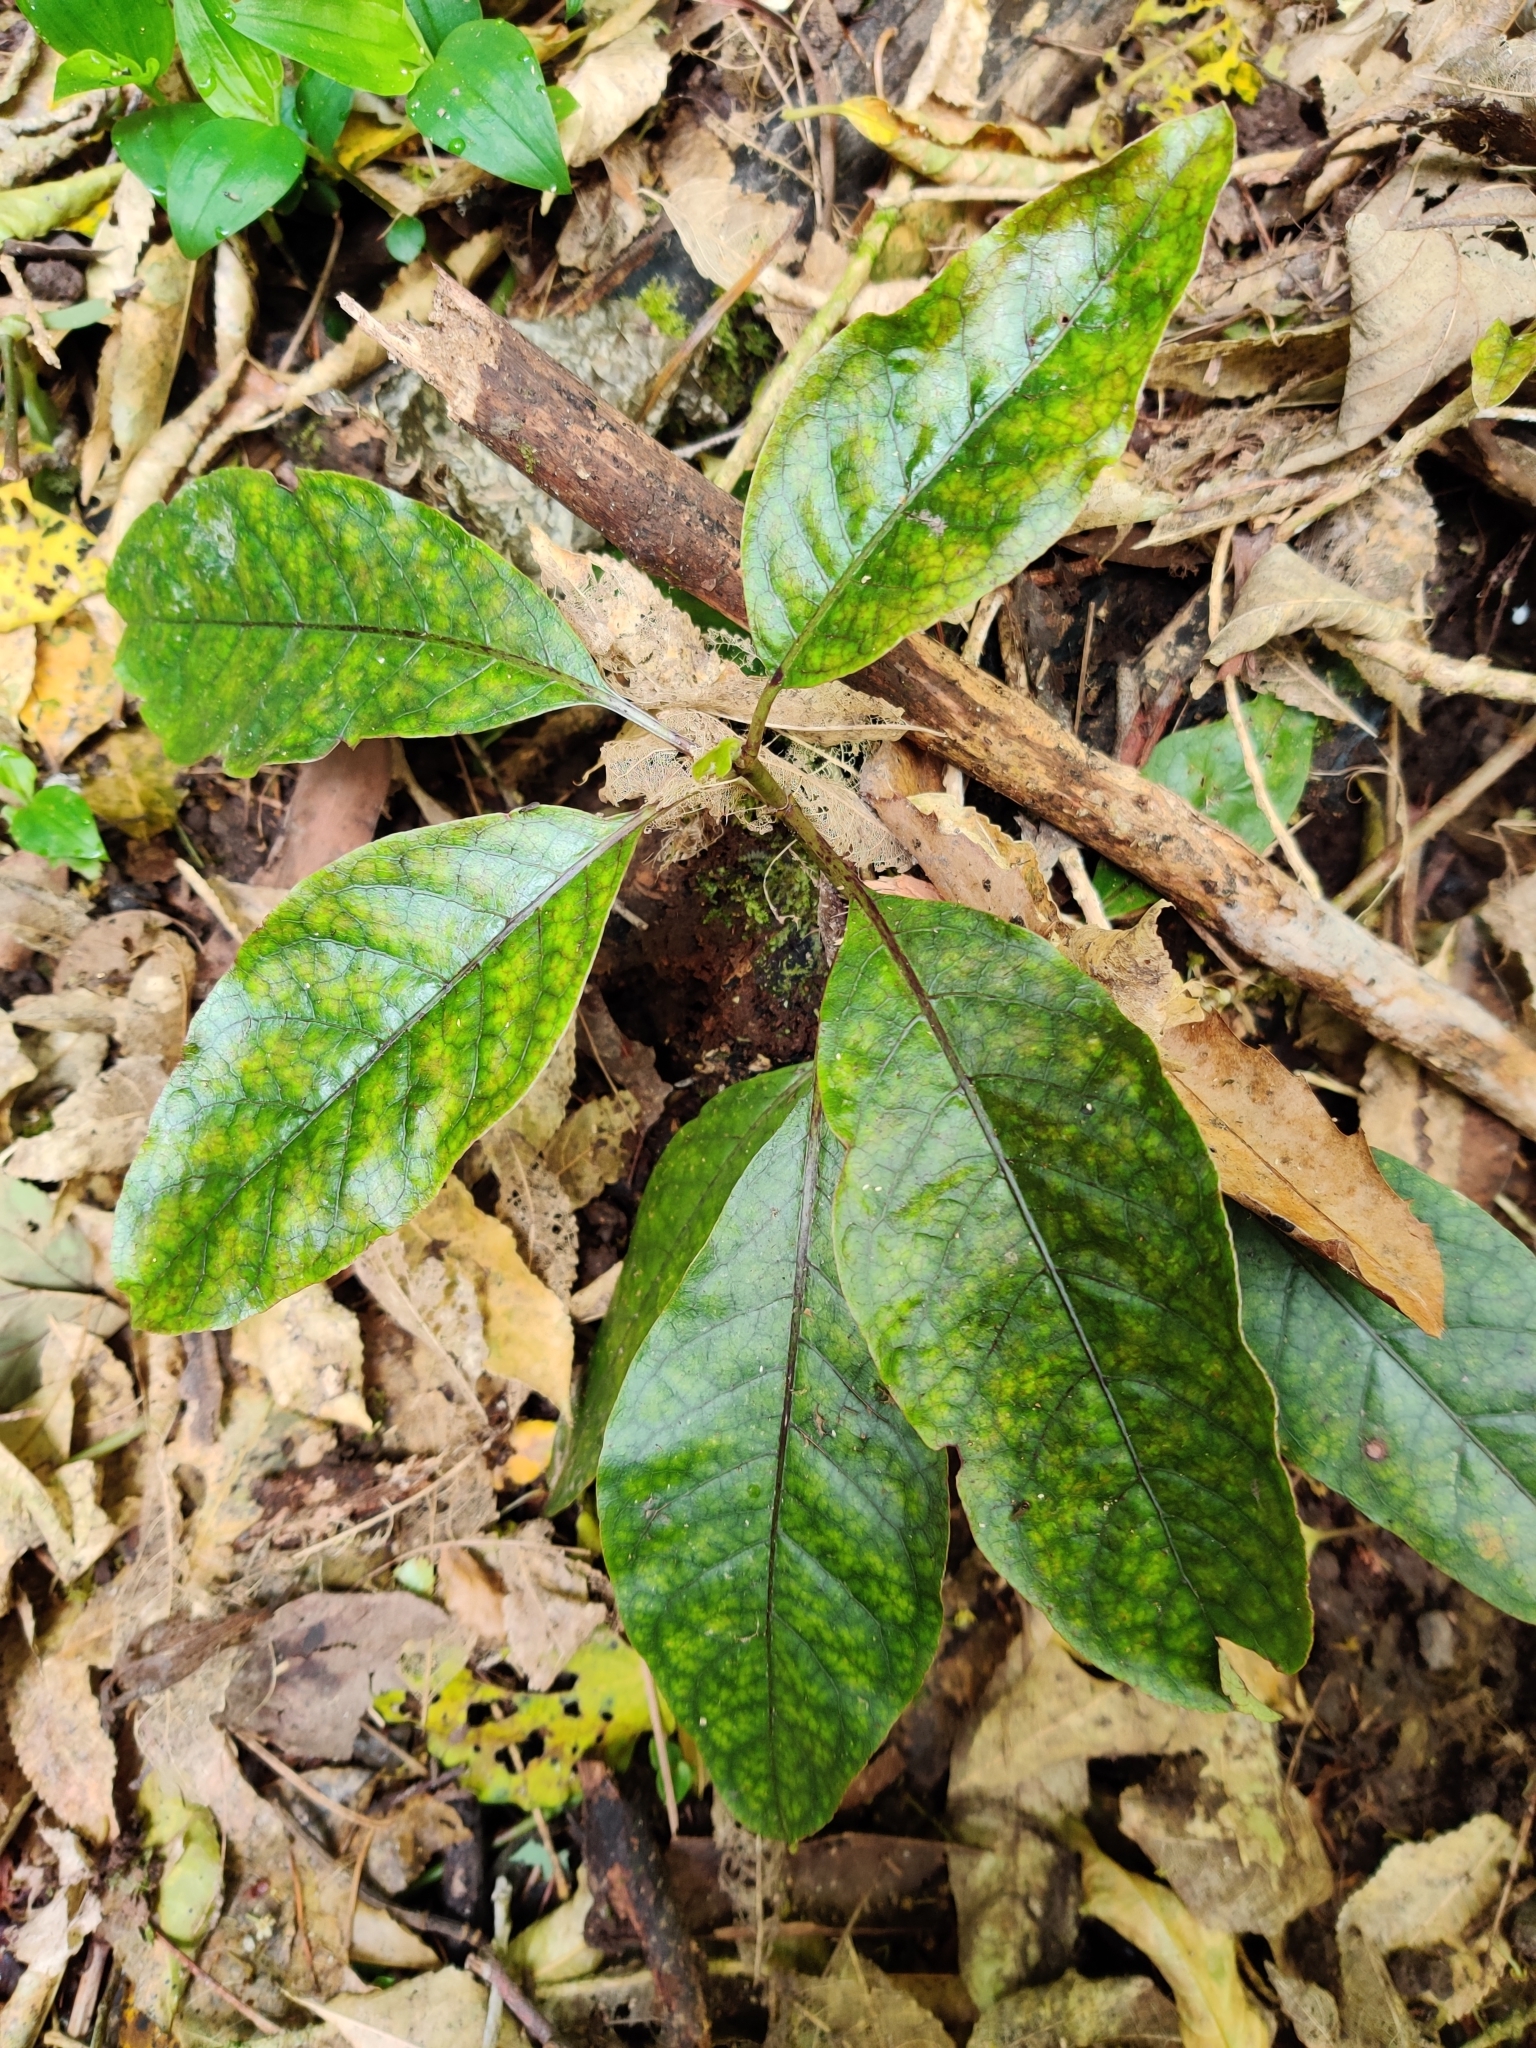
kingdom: Plantae
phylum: Tracheophyta
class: Magnoliopsida
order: Gentianales
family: Rubiaceae
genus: Coprosma
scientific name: Coprosma autumnalis
